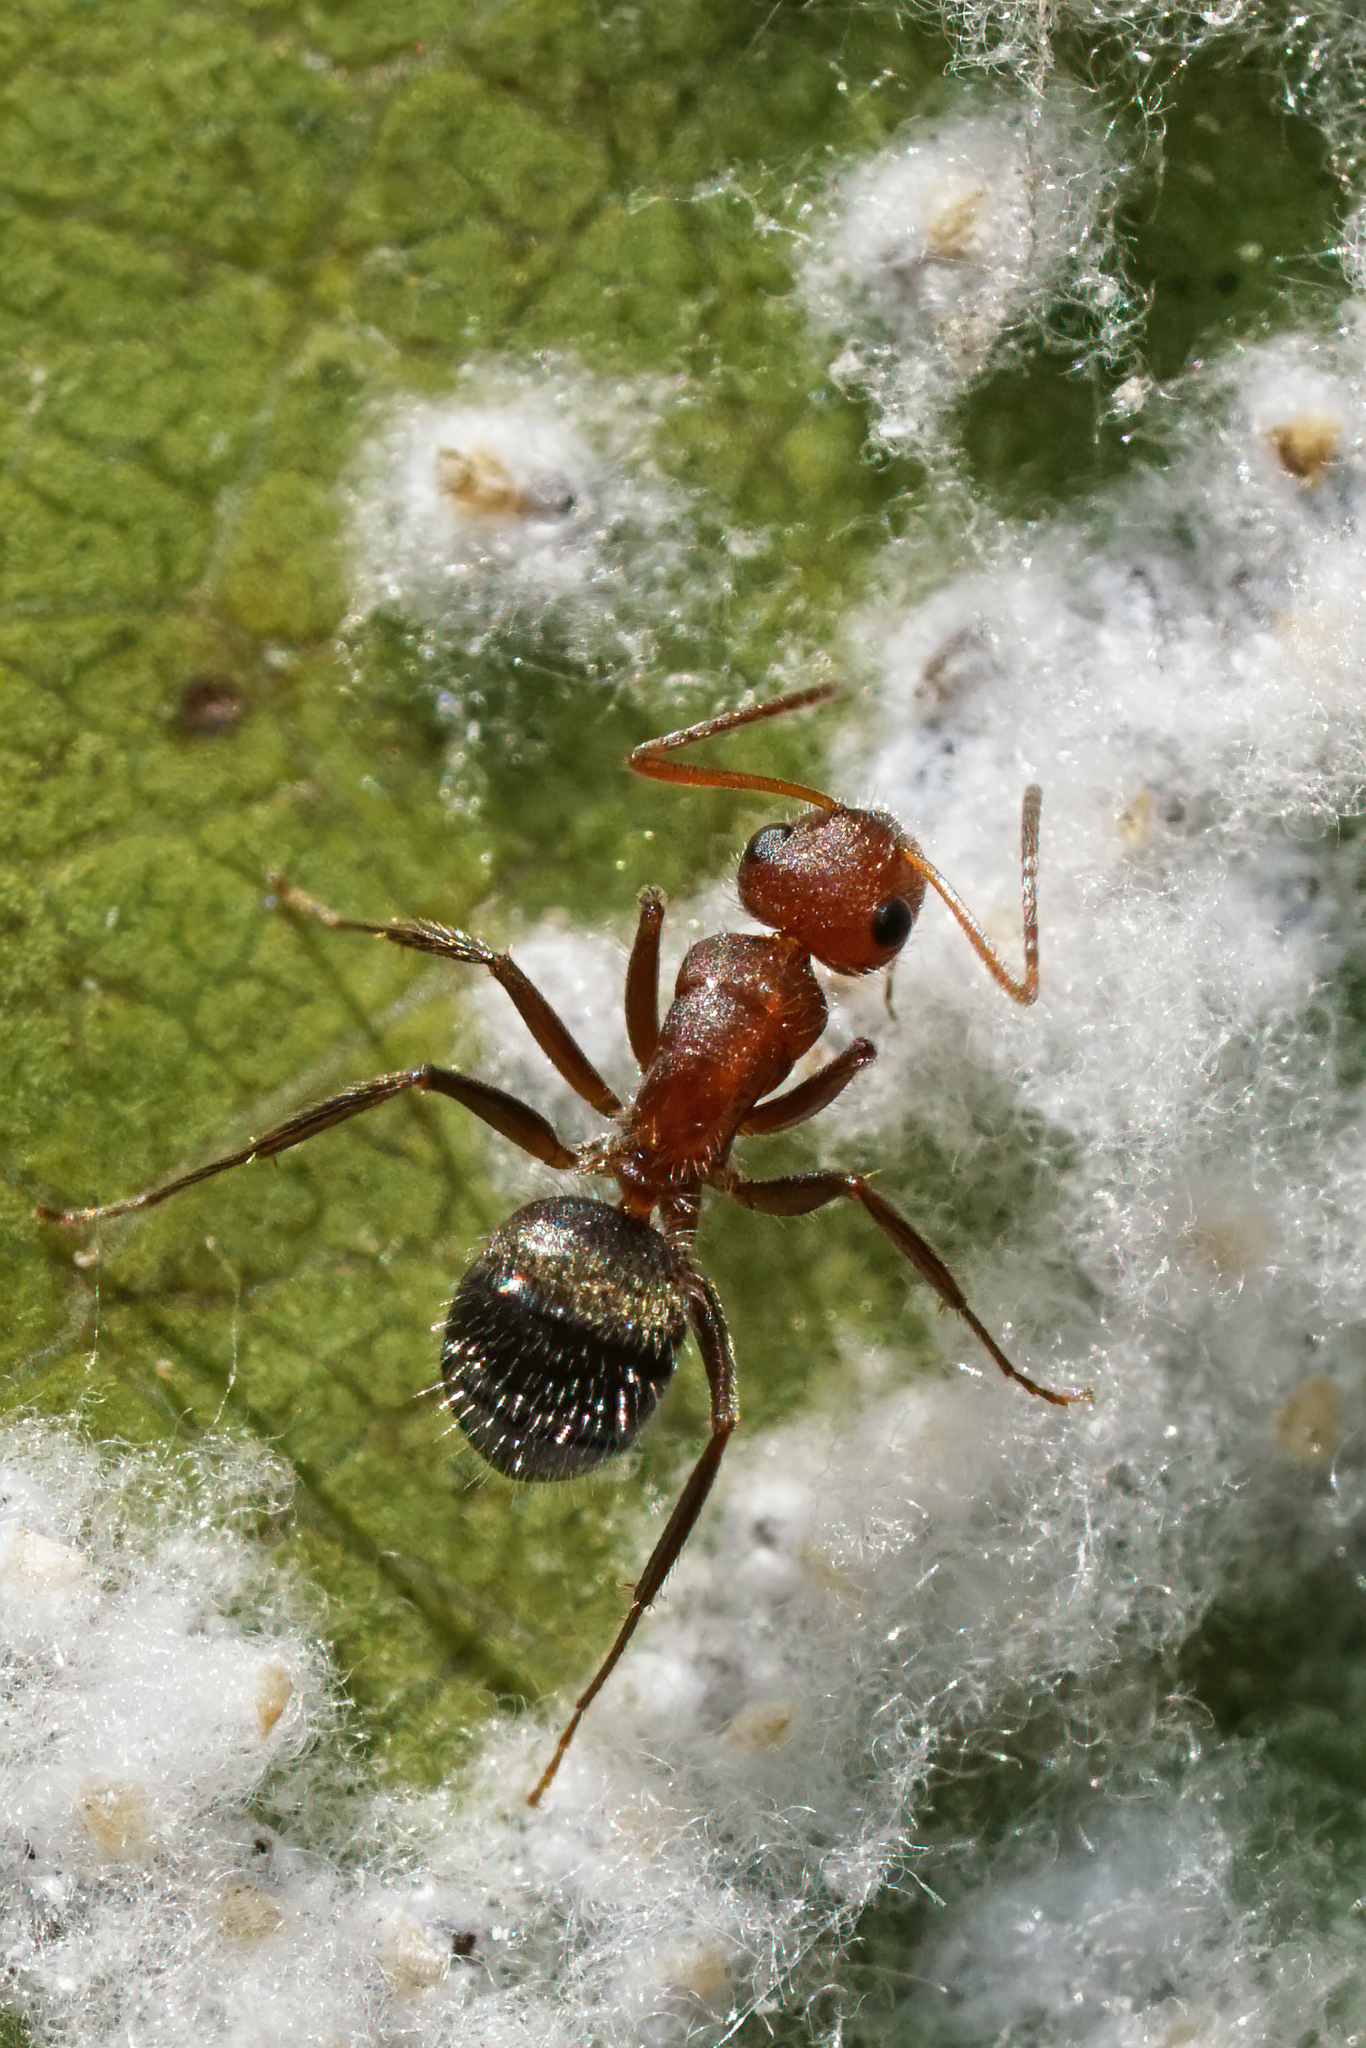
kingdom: Animalia
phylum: Arthropoda
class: Insecta
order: Hymenoptera
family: Formicidae
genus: Camponotus
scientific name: Camponotus planatus
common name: Compact carpenter ant
